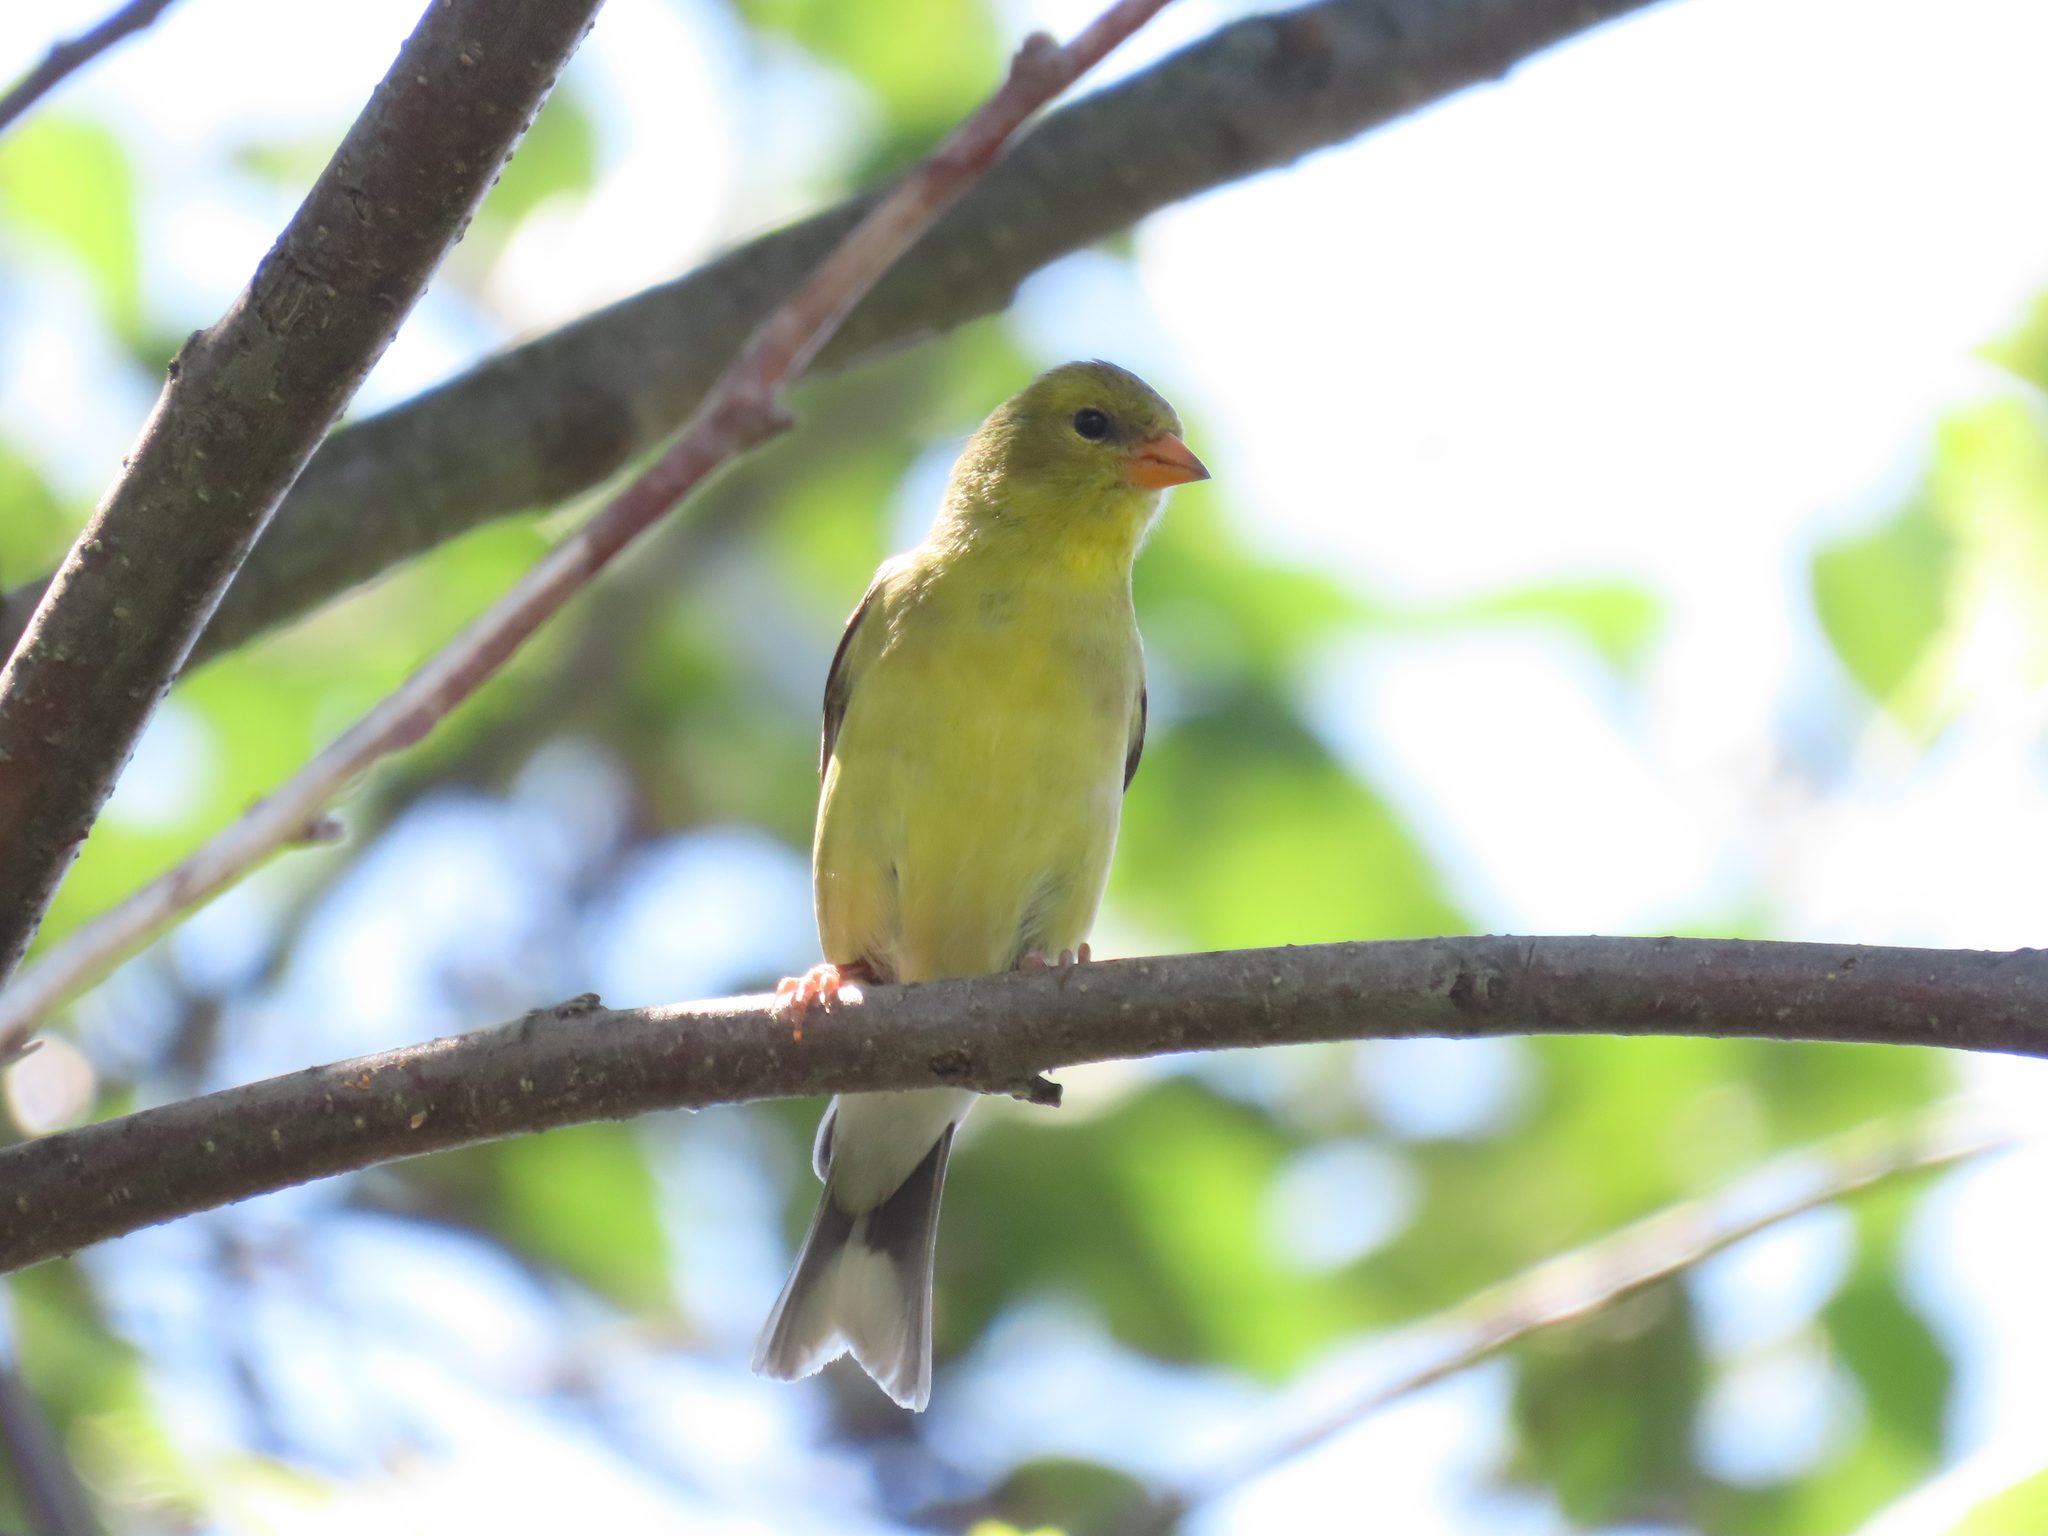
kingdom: Animalia
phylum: Chordata
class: Aves
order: Passeriformes
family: Fringillidae
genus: Spinus
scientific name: Spinus tristis
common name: American goldfinch
